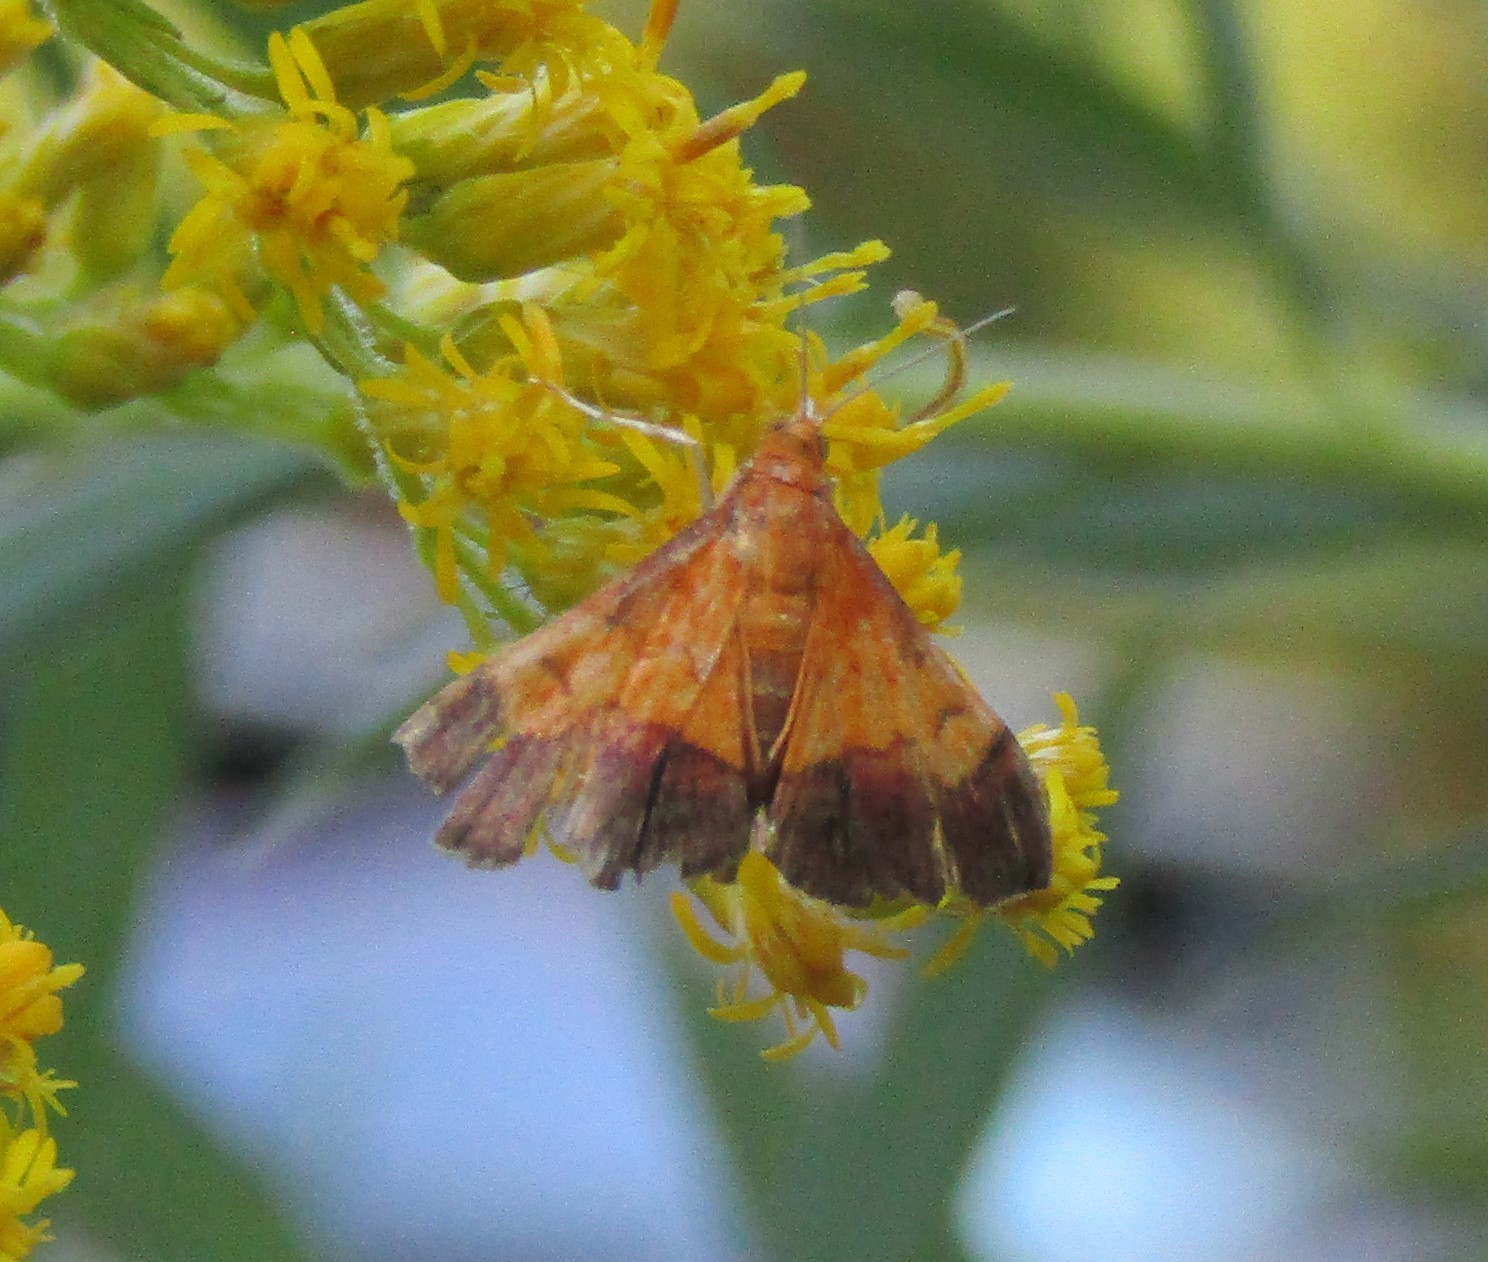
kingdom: Animalia
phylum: Arthropoda
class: Insecta
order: Lepidoptera
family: Crambidae
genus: Pyrausta
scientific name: Pyrausta bicoloralis
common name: Bicolored pyrausta moth
